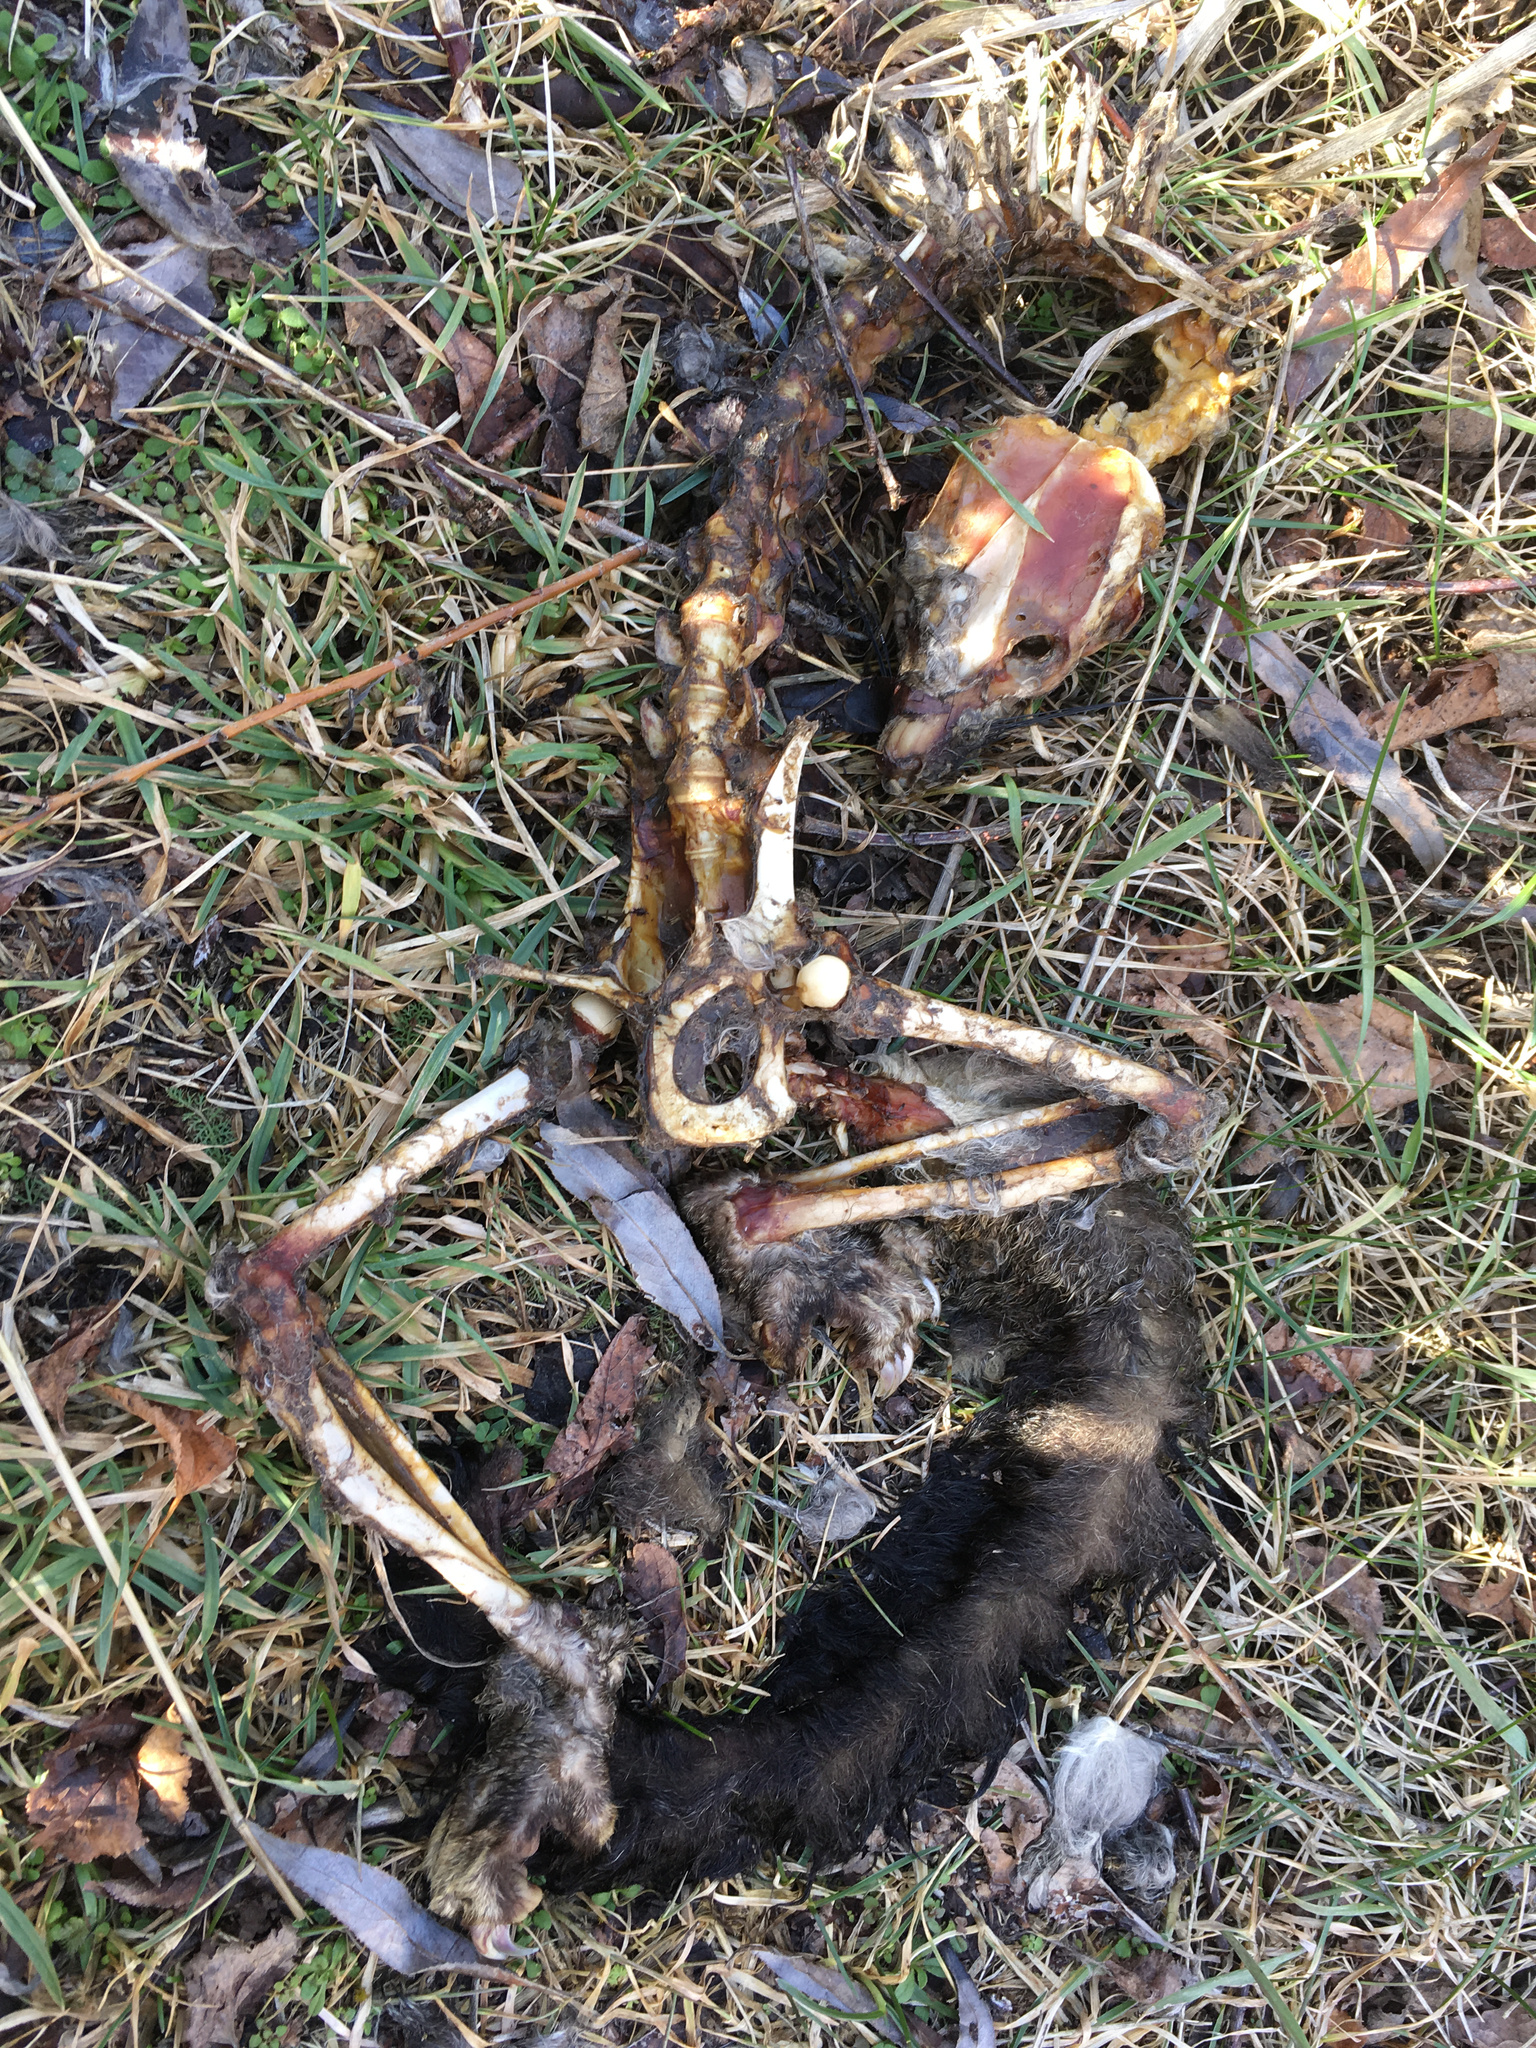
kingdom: Animalia
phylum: Chordata
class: Mammalia
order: Diprotodontia
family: Phalangeridae
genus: Trichosurus
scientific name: Trichosurus vulpecula
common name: Common brushtail
